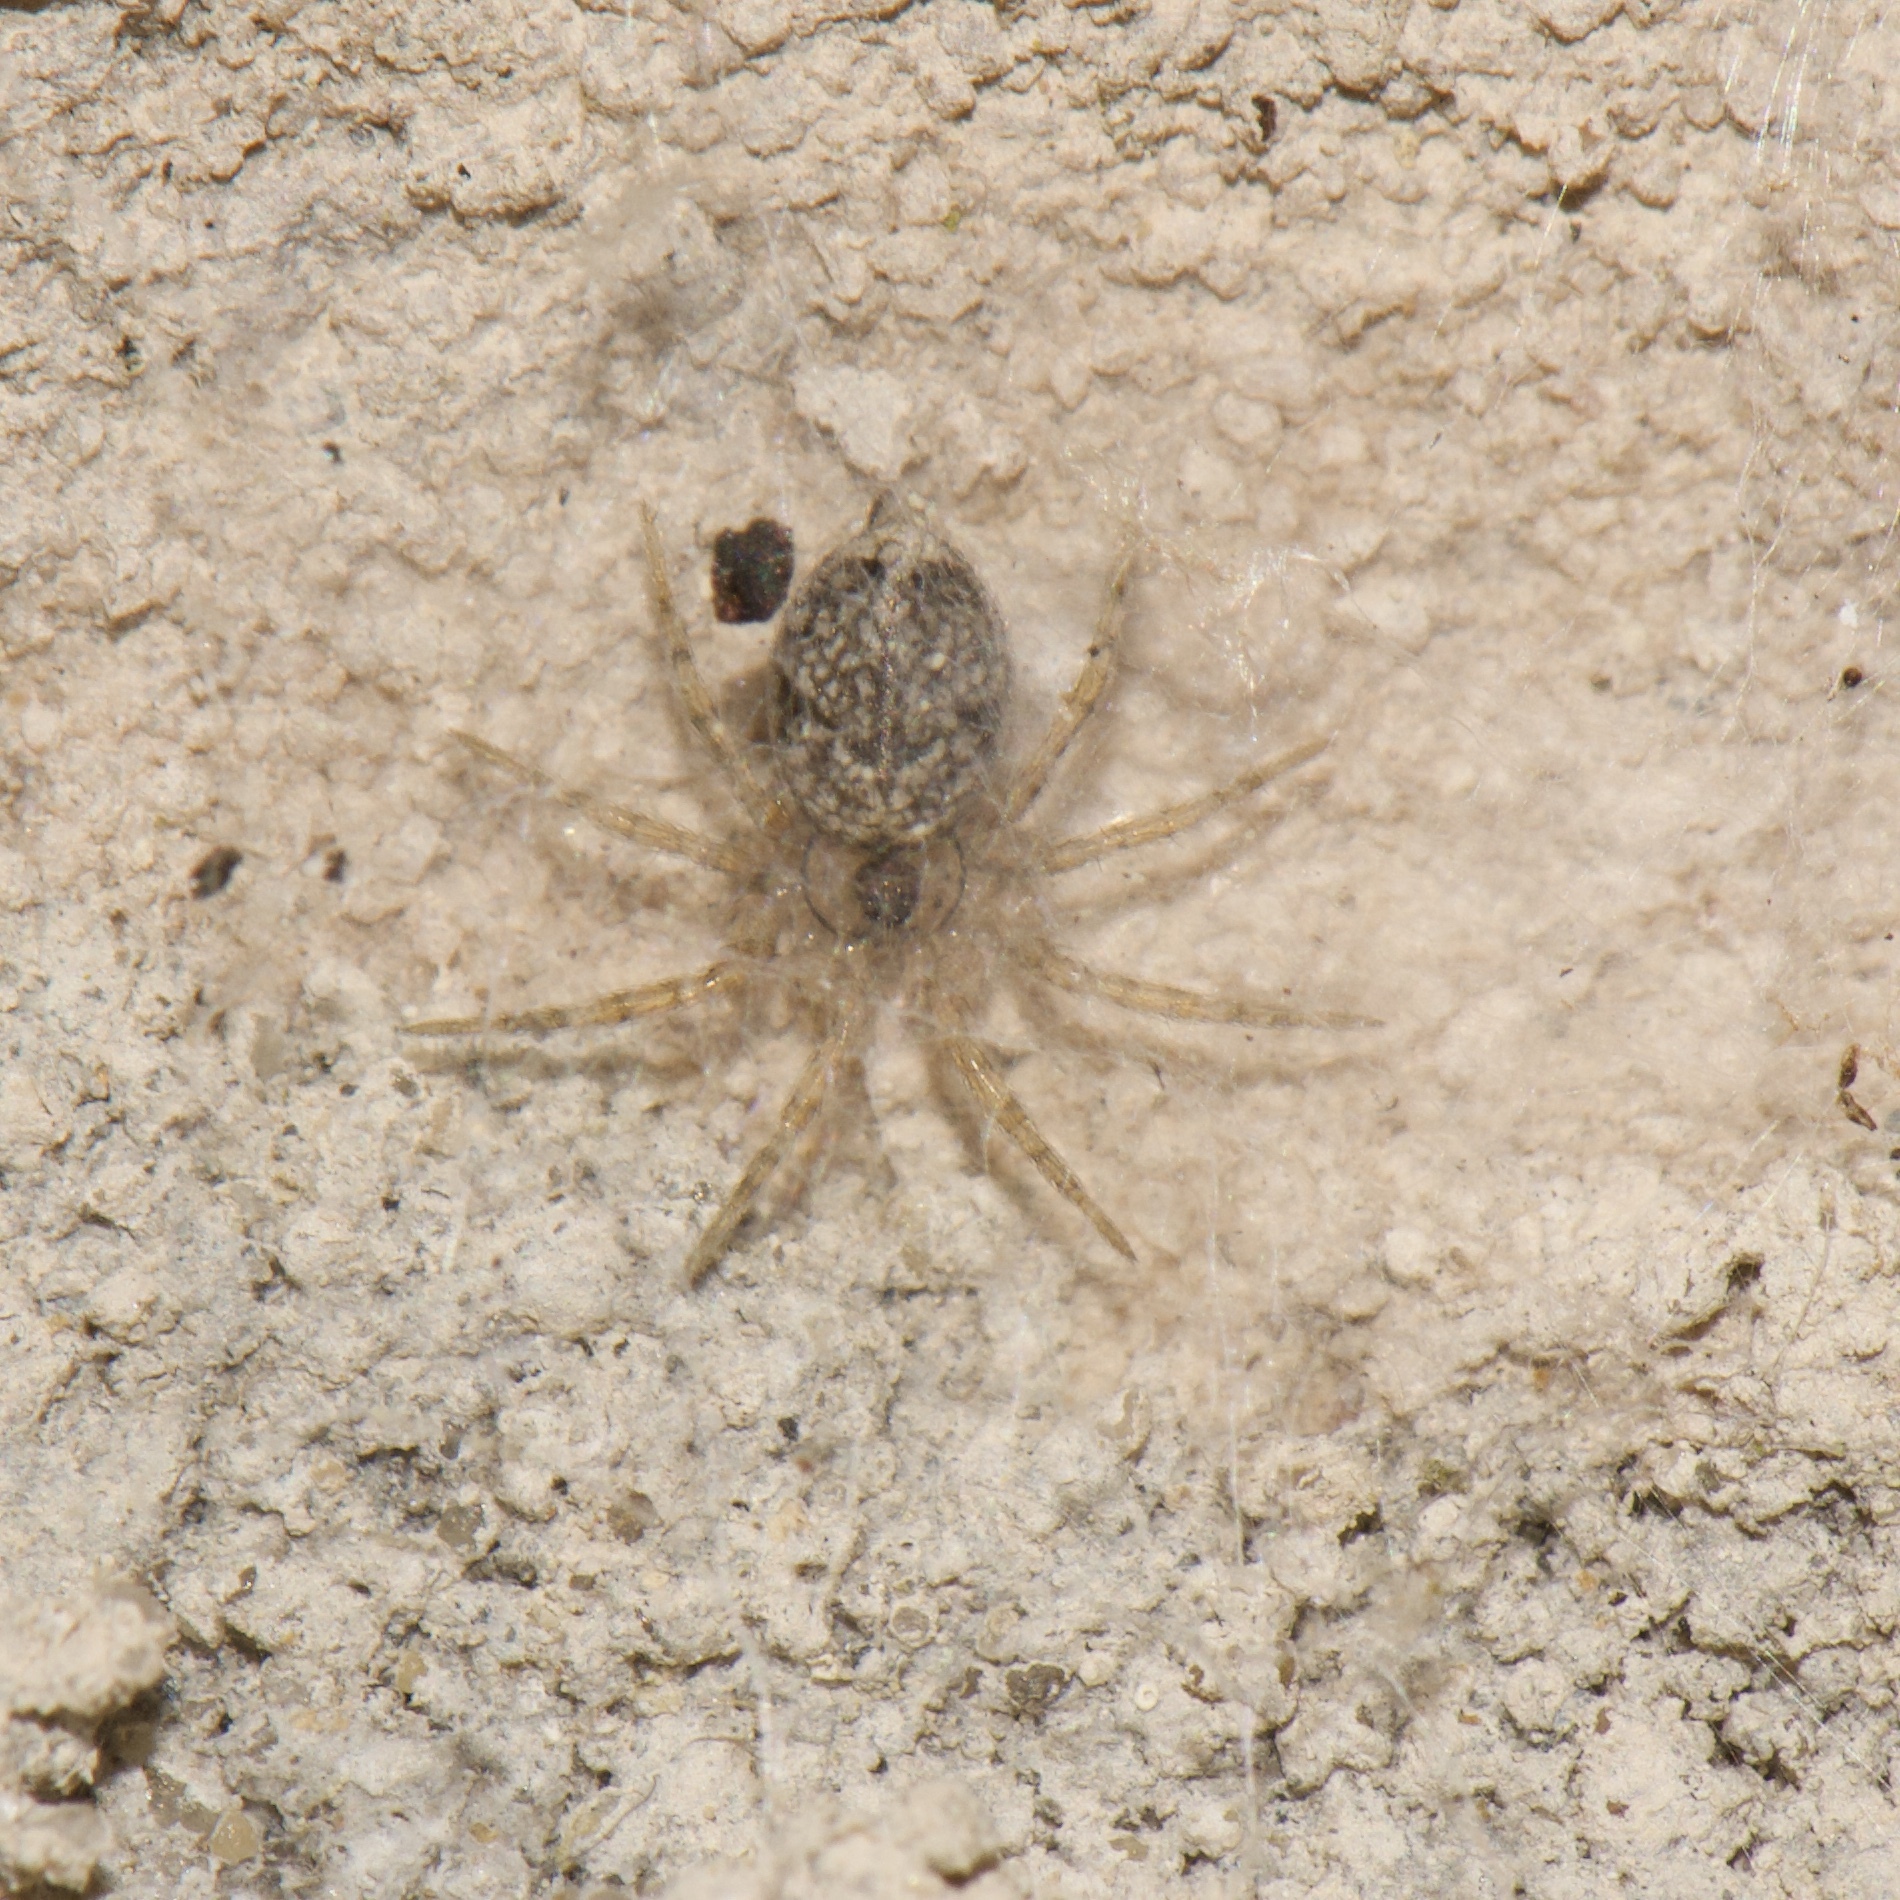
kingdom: Animalia
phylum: Arthropoda
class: Arachnida
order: Araneae
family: Oecobiidae
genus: Oecobius
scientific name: Oecobius navus
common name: Flatmesh weaver
